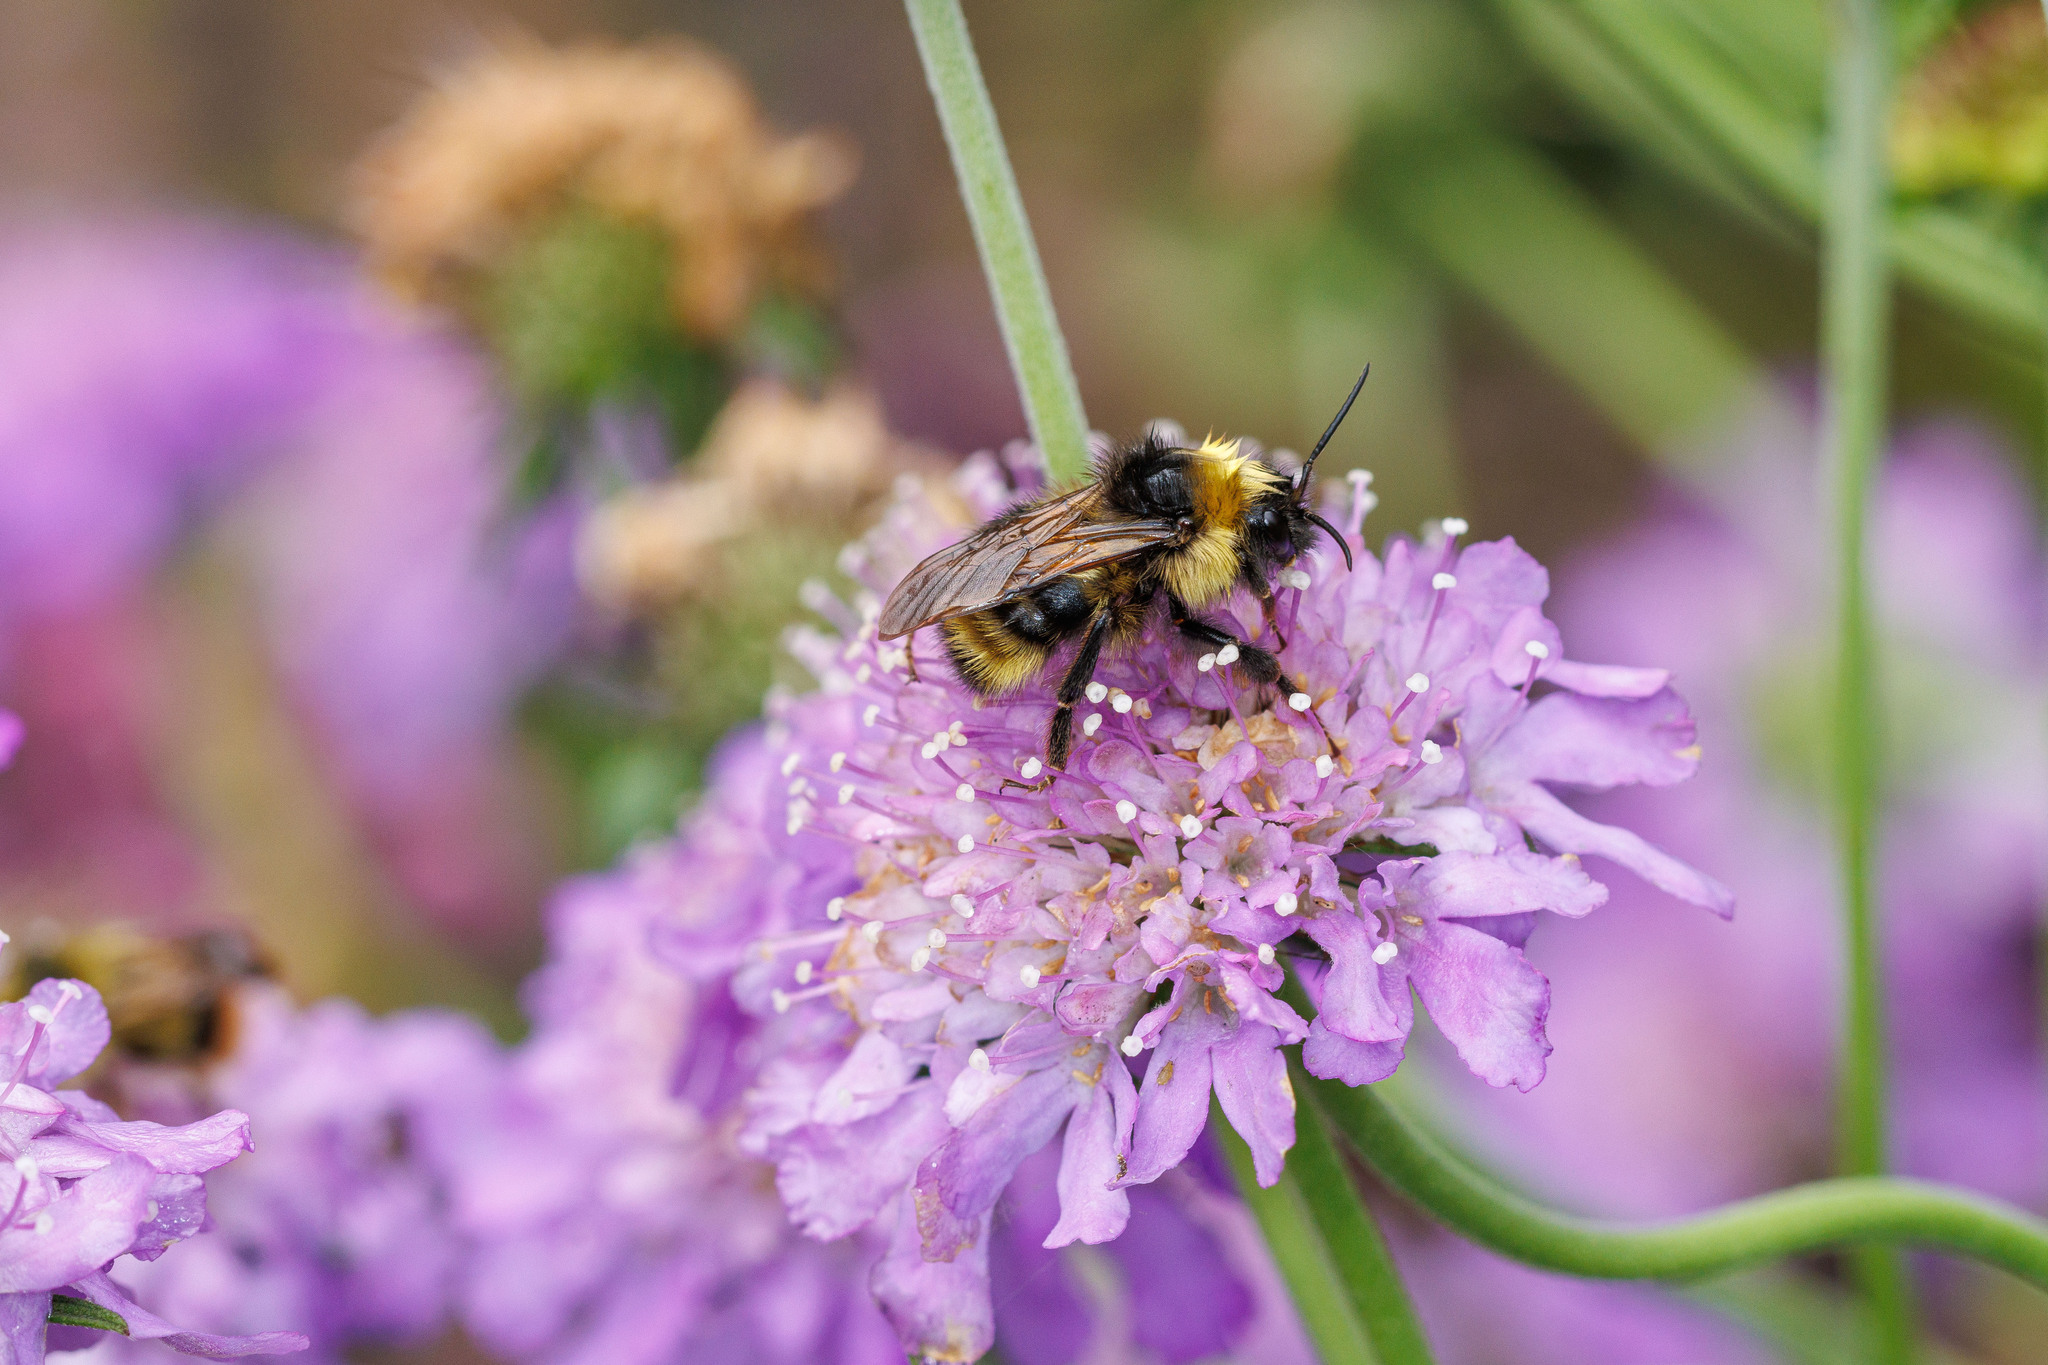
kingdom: Animalia
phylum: Arthropoda
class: Insecta
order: Hymenoptera
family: Apidae
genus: Bombus
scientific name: Bombus flavidus
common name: Fernald cuckoo bumble bee
